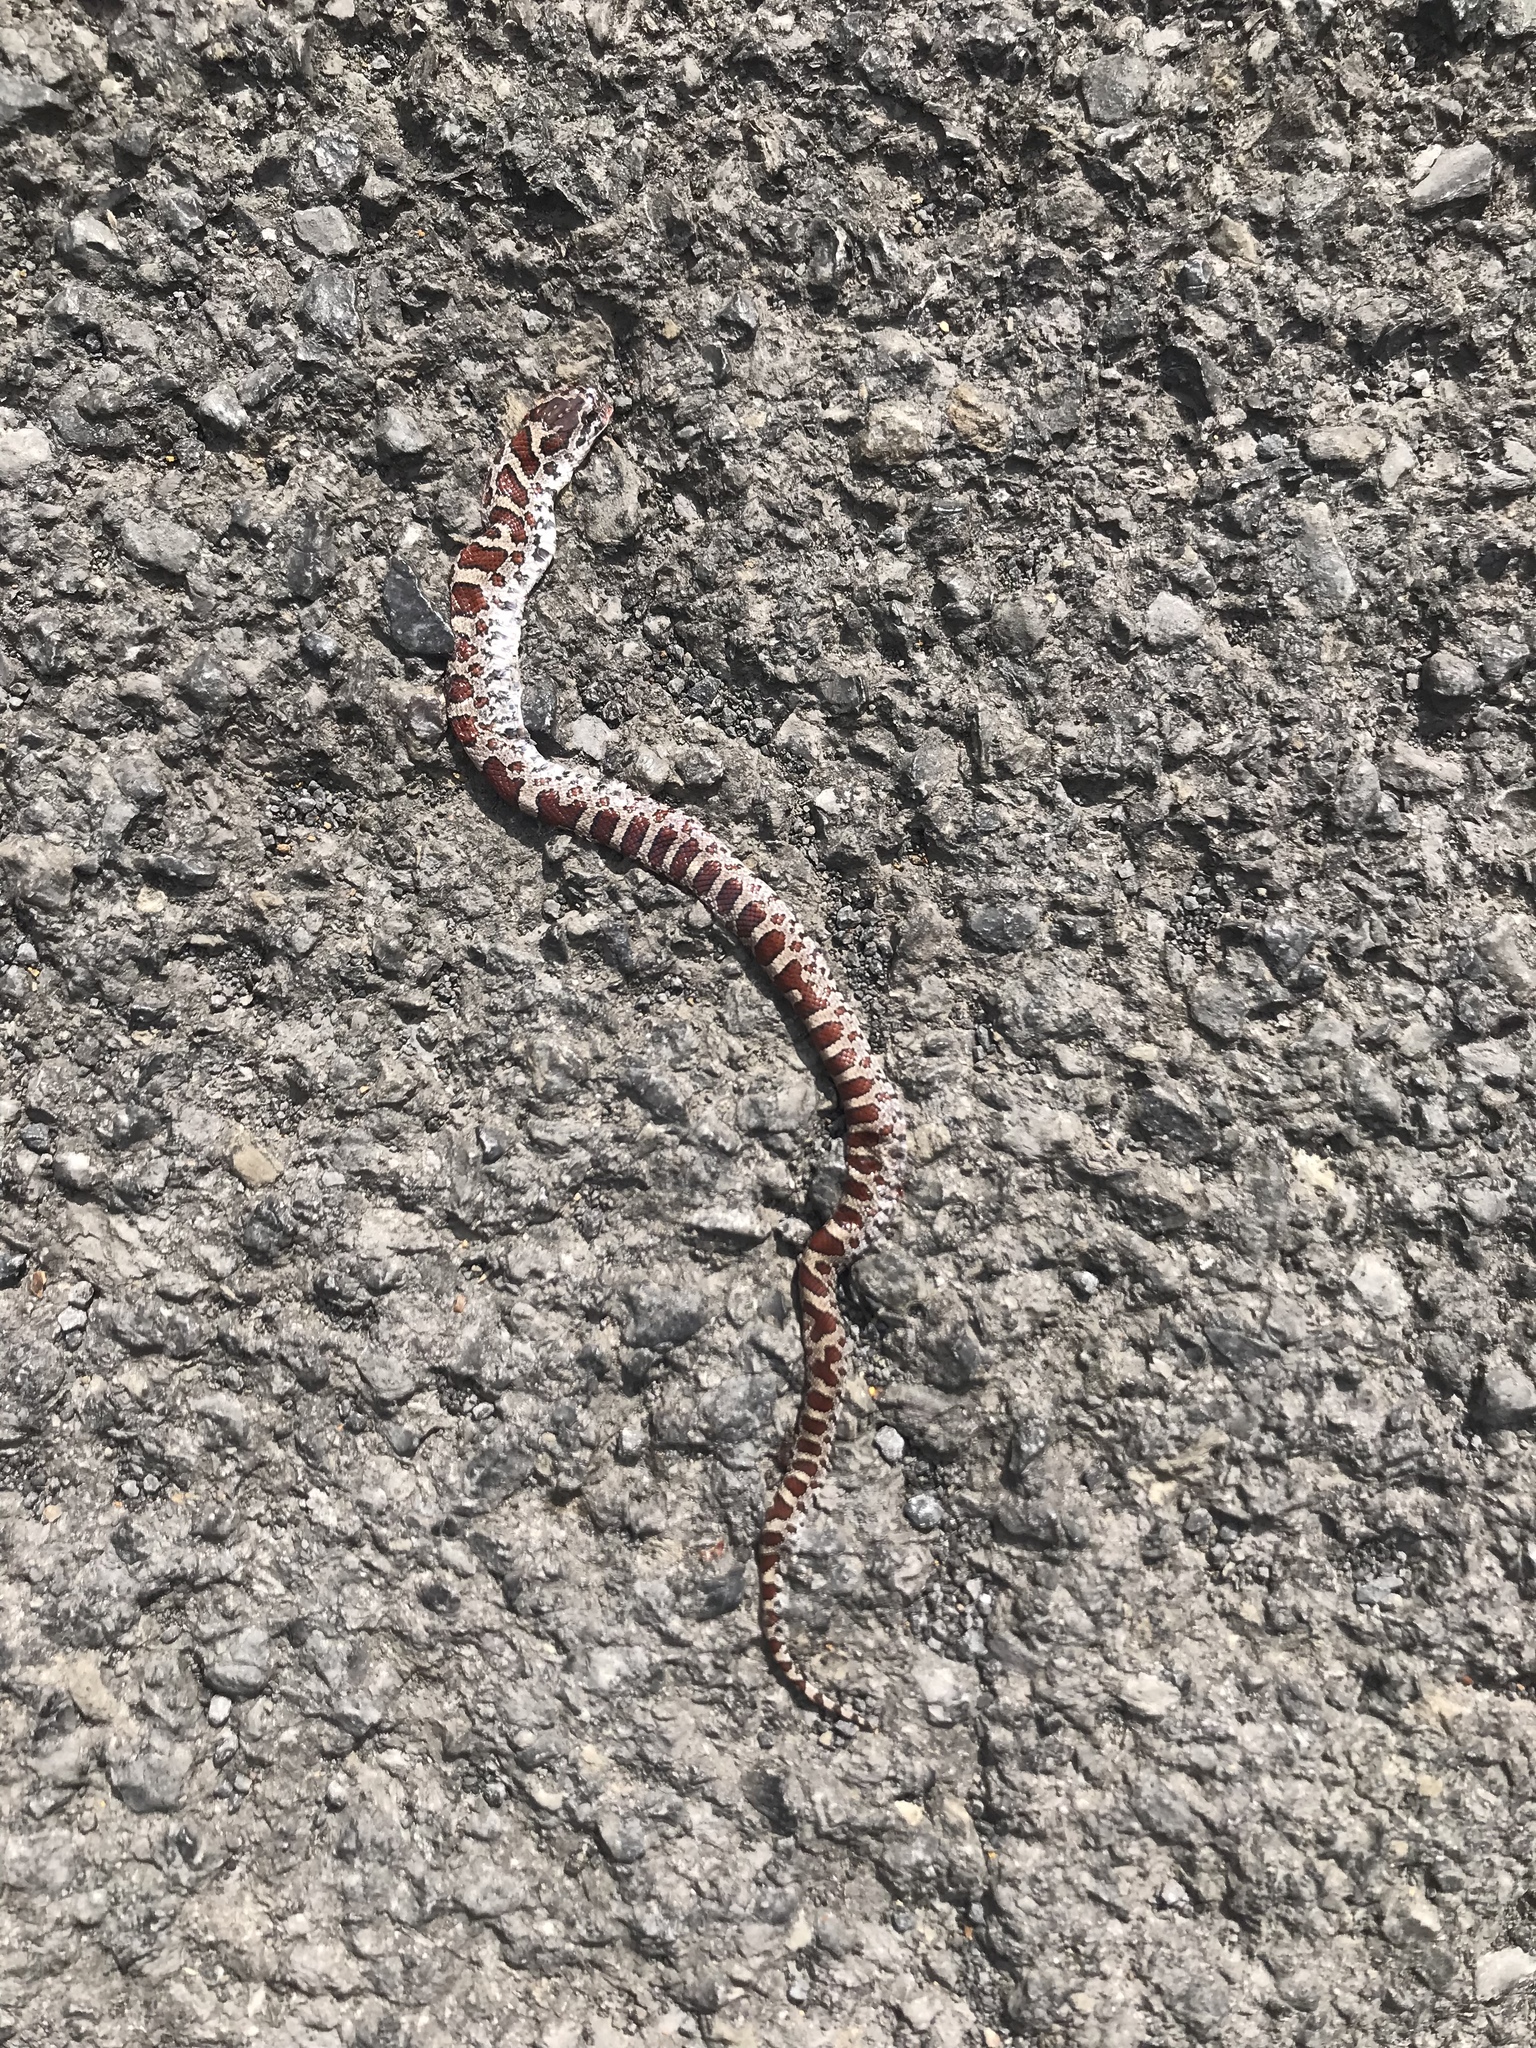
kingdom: Animalia
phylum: Chordata
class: Squamata
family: Colubridae
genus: Lampropeltis
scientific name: Lampropeltis triangulum
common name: Eastern milksnake
